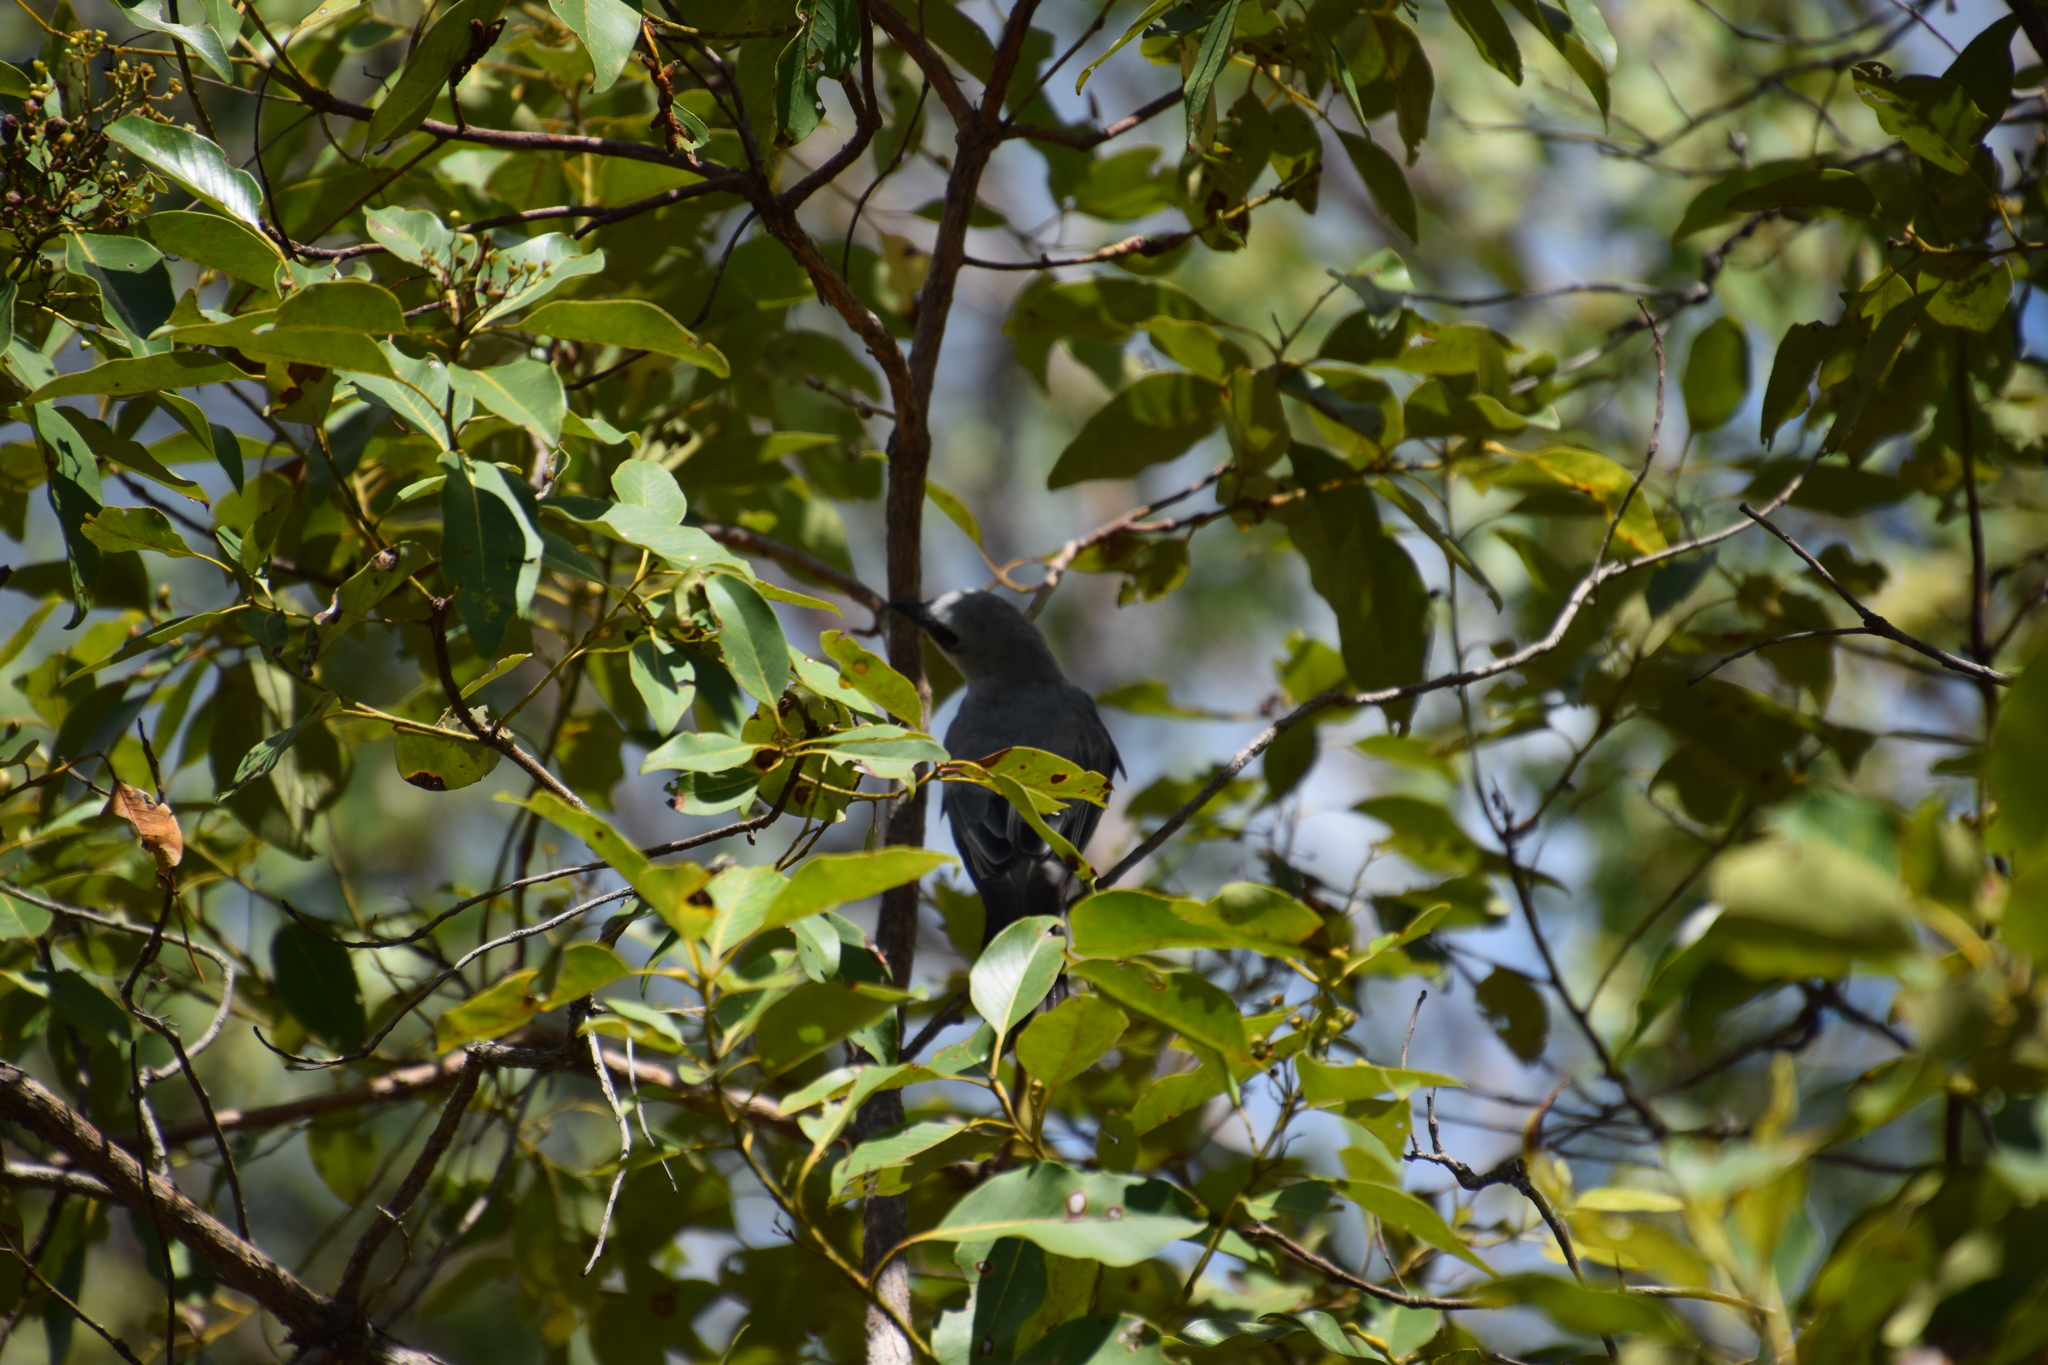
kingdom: Animalia
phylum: Chordata
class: Aves
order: Passeriformes
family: Campephagidae
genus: Coracina
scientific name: Coracina papuensis
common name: White-bellied cuckooshrike
